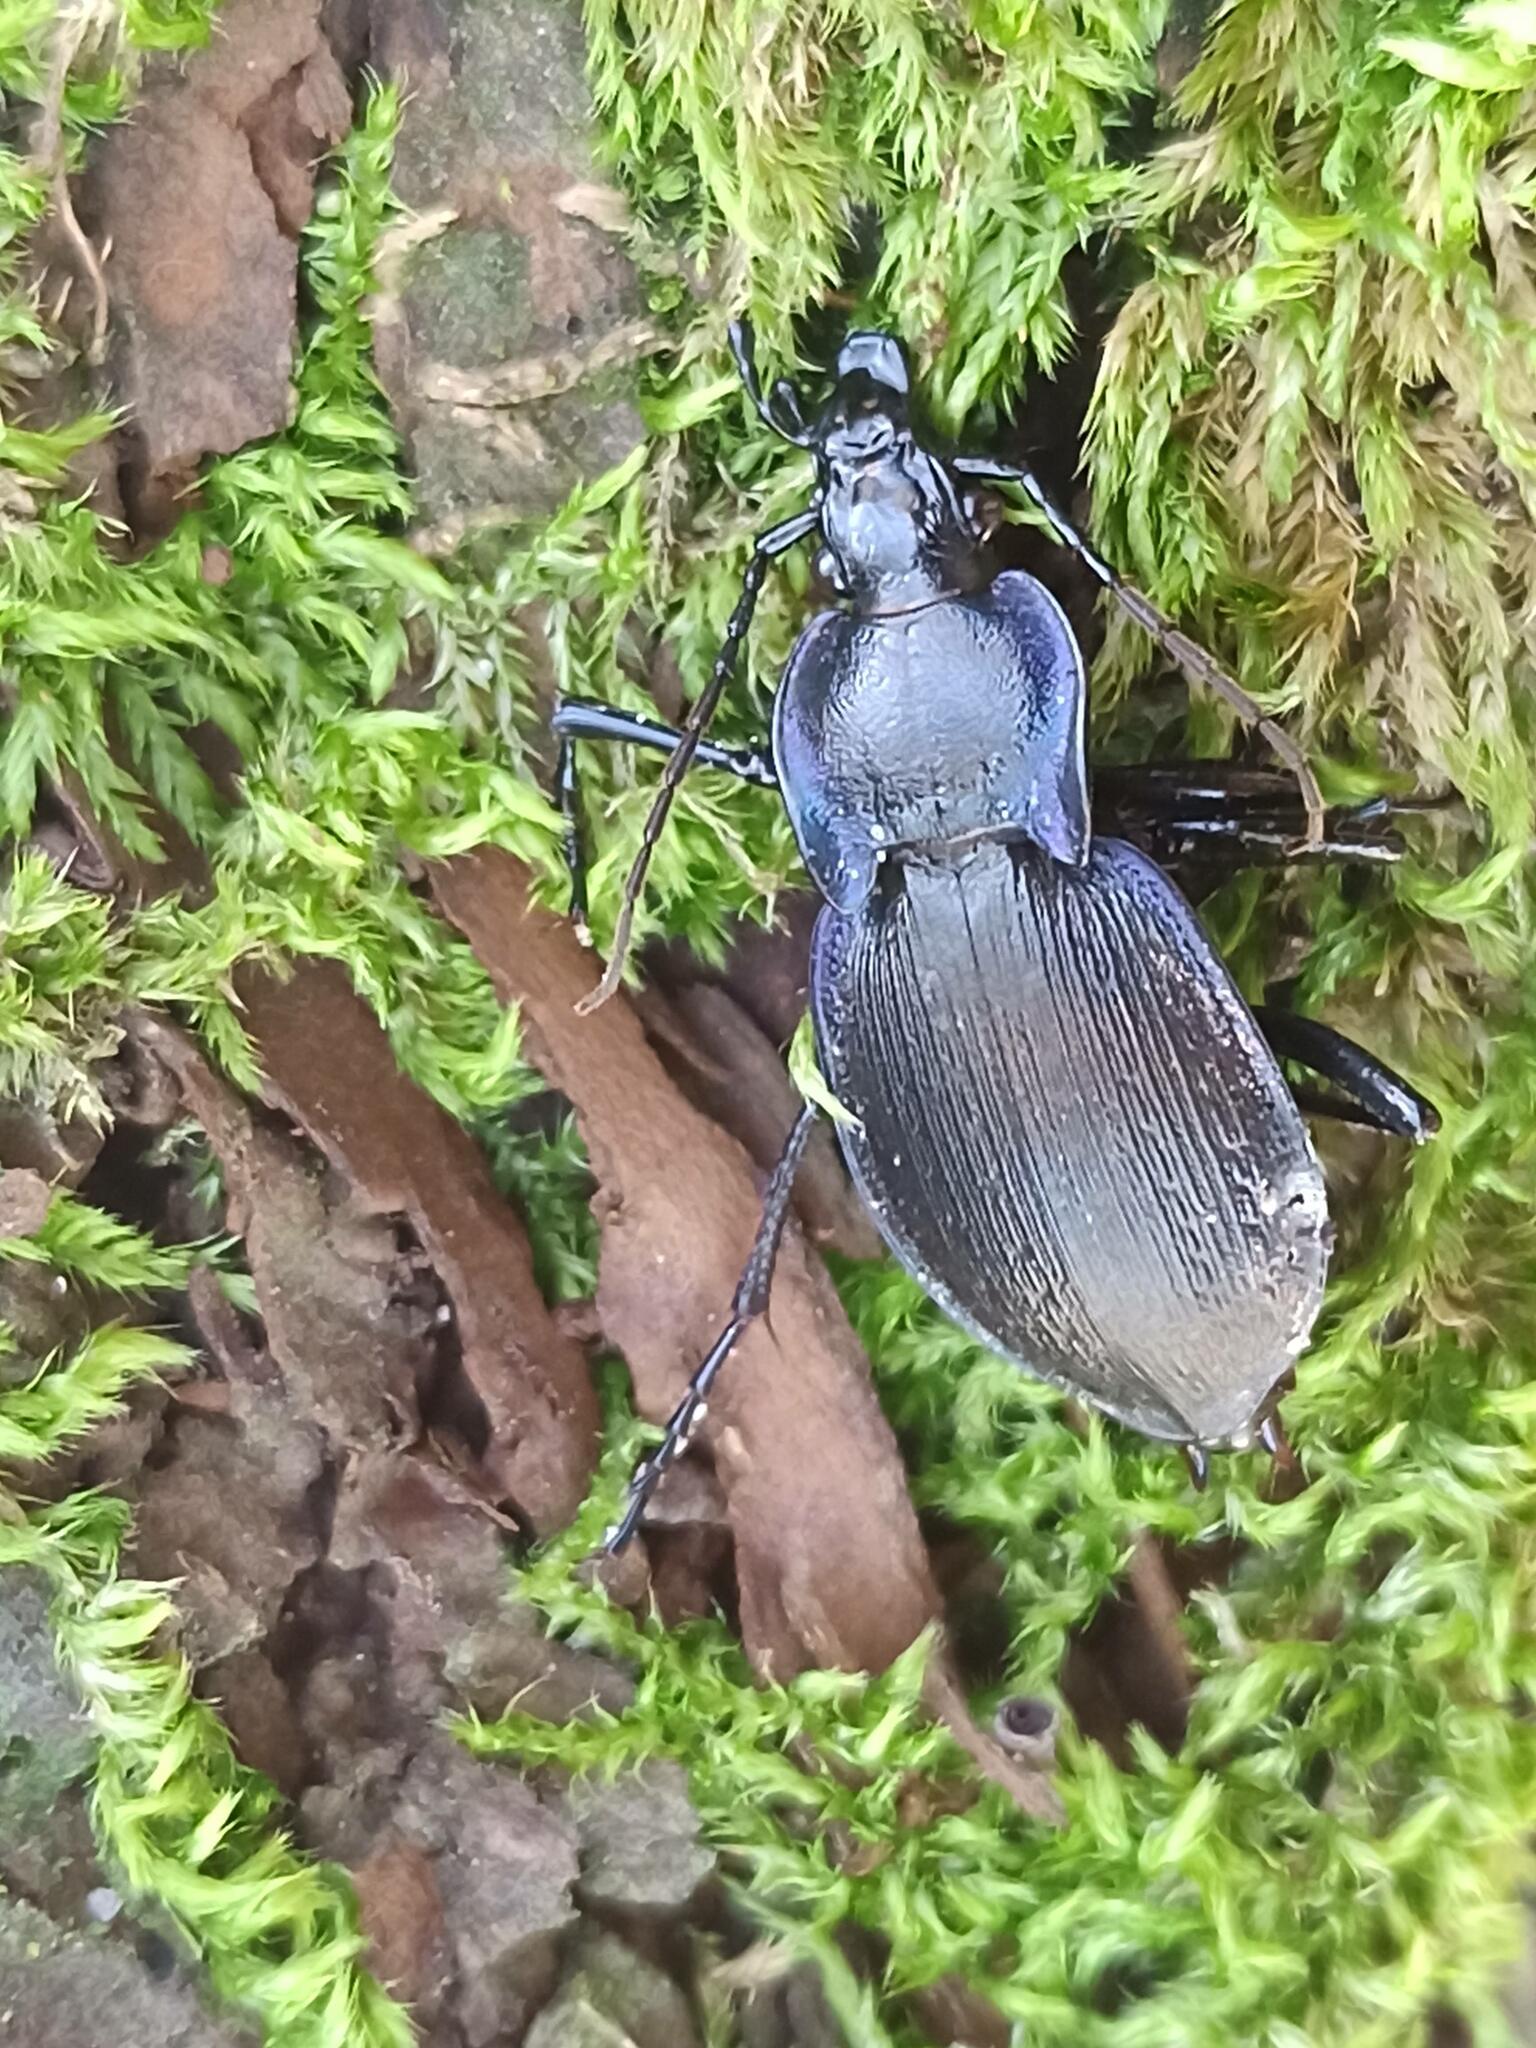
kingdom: Animalia
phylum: Arthropoda
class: Insecta
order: Coleoptera
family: Carabidae
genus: Carabus
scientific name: Carabus luetgensi
